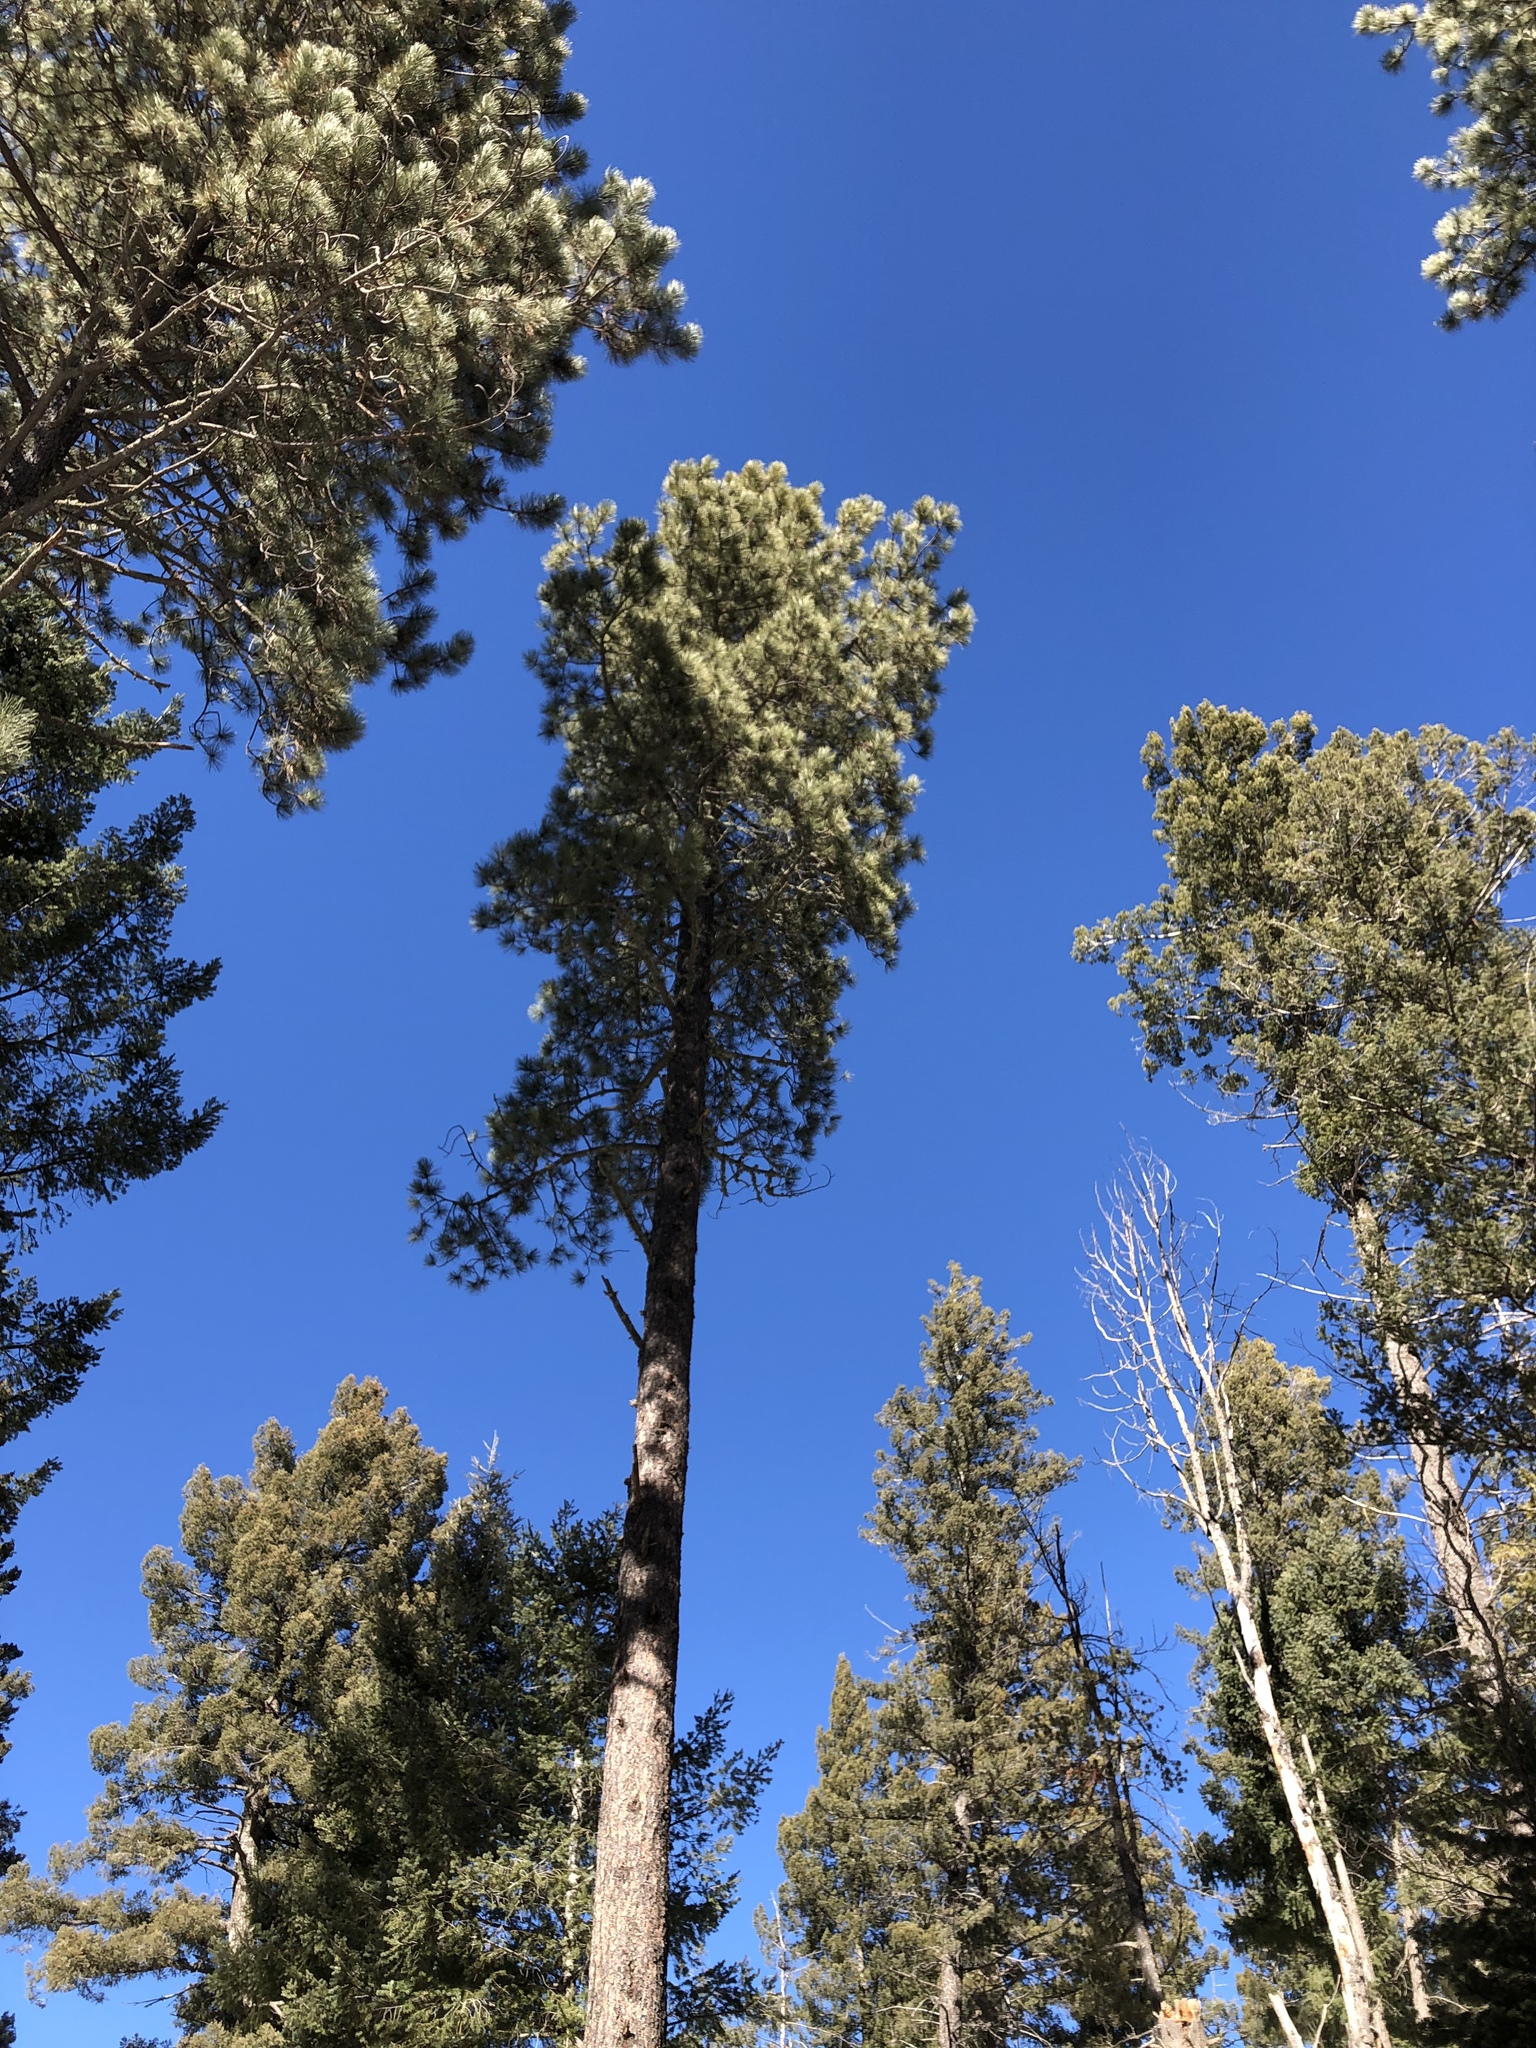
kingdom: Plantae
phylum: Tracheophyta
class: Pinopsida
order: Pinales
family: Pinaceae
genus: Pinus
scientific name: Pinus ponderosa
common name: Western yellow-pine
